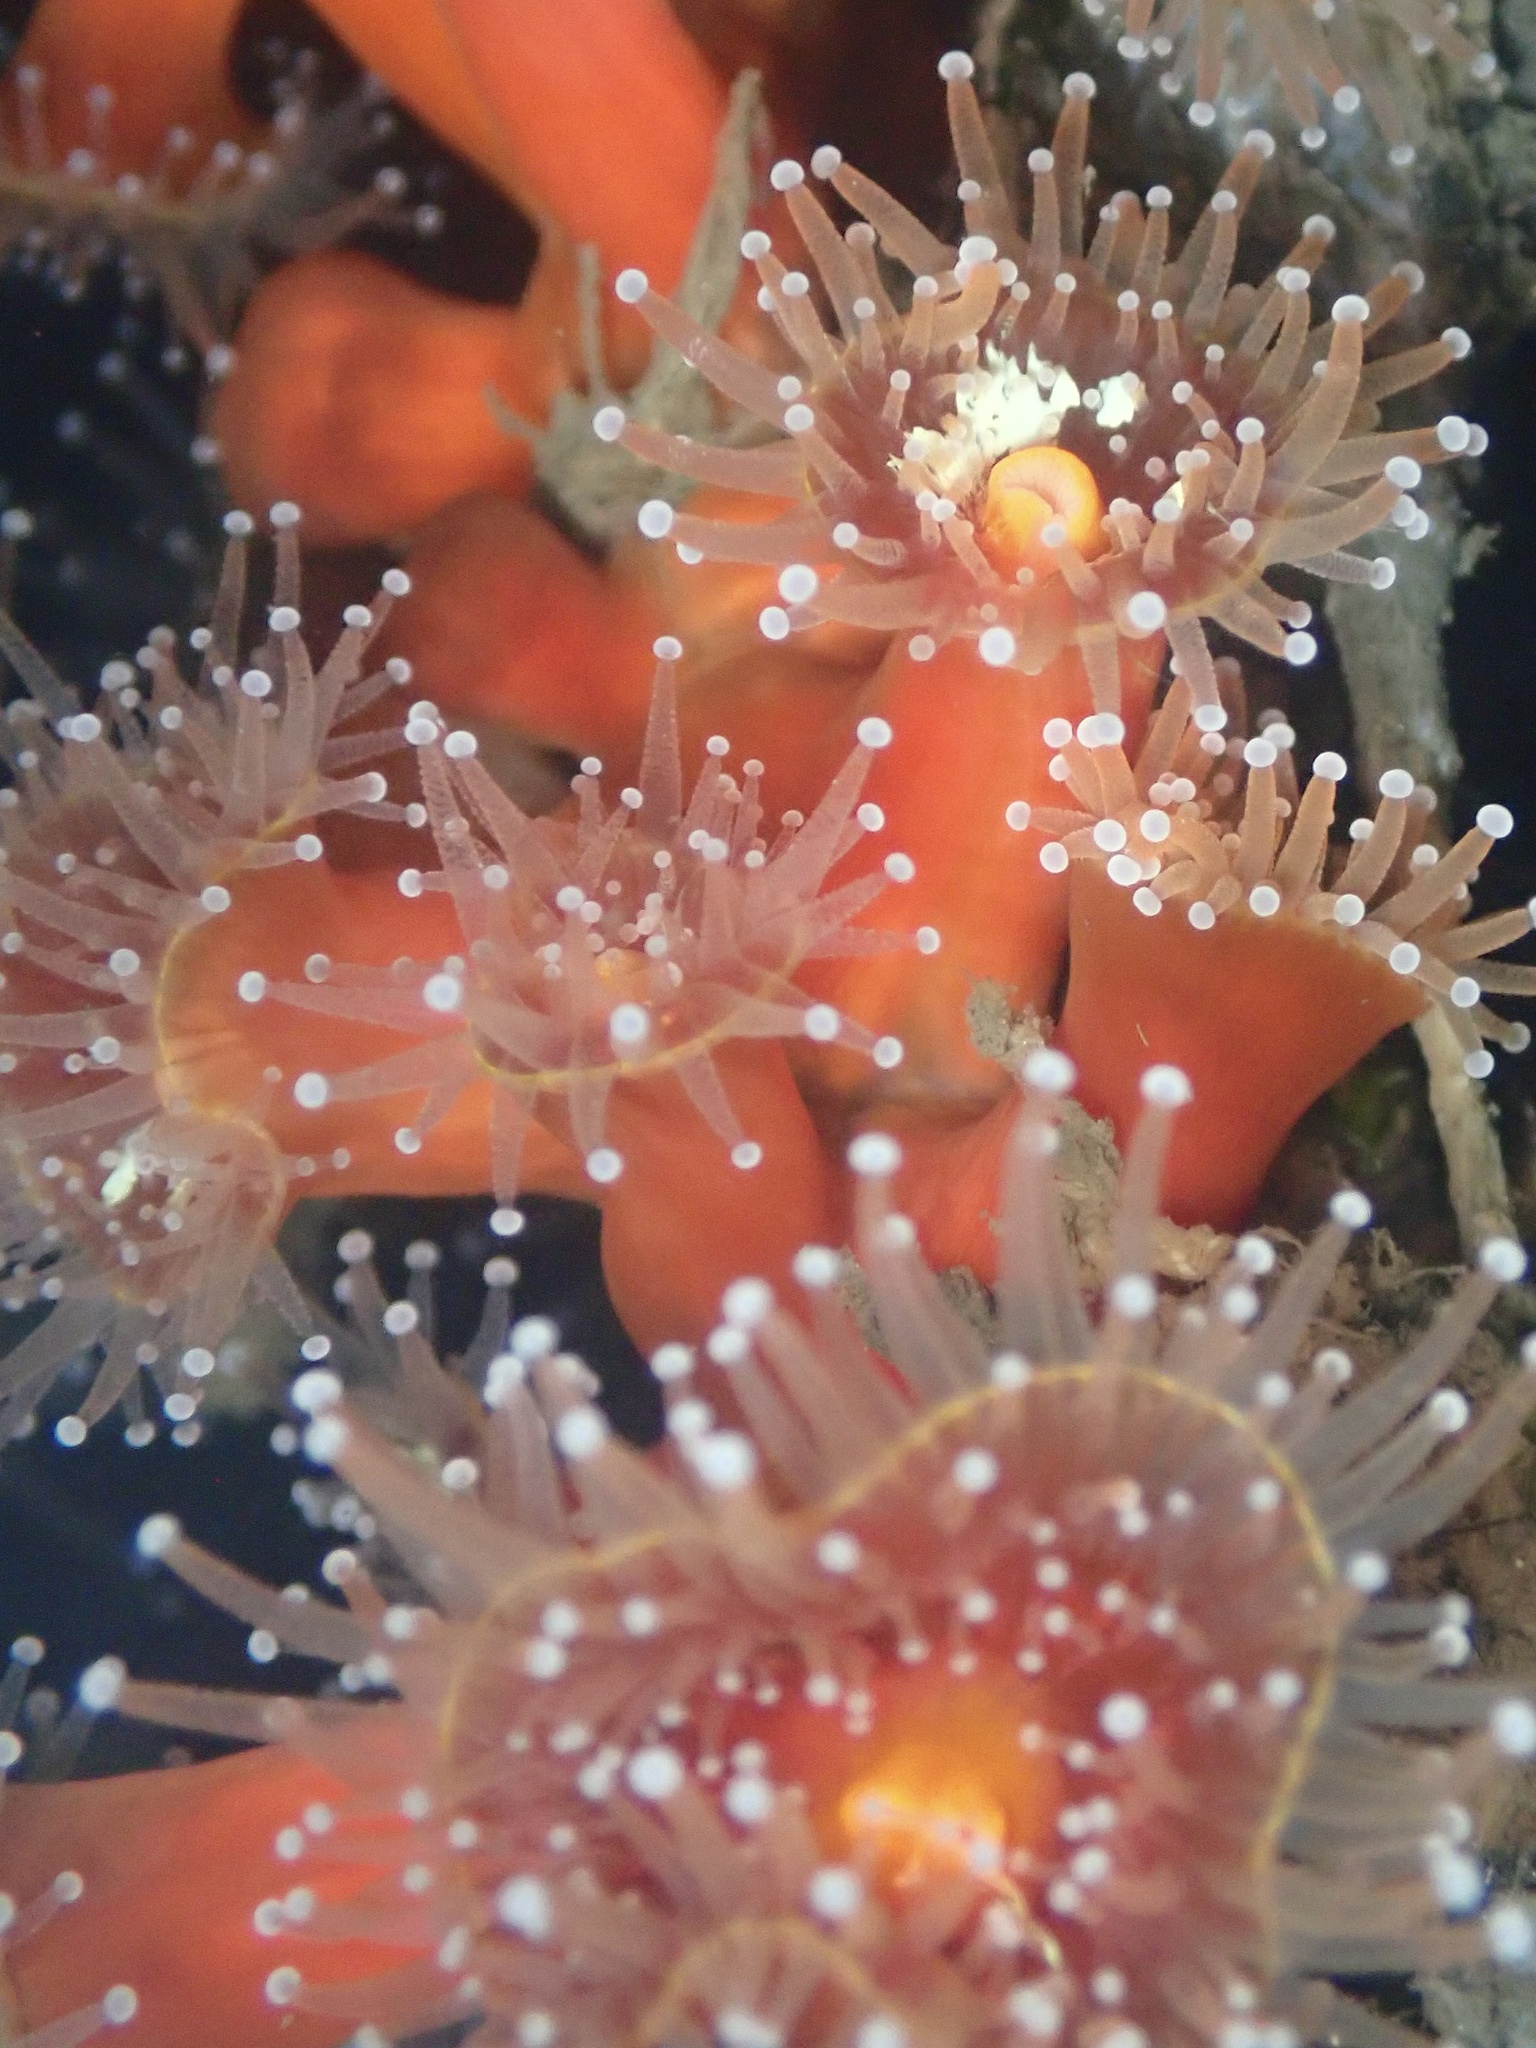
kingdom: Animalia
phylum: Cnidaria
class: Anthozoa
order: Corallimorpharia
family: Corallimorphidae
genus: Corynactis
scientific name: Corynactis californica
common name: Strawberry corallimorpharian
